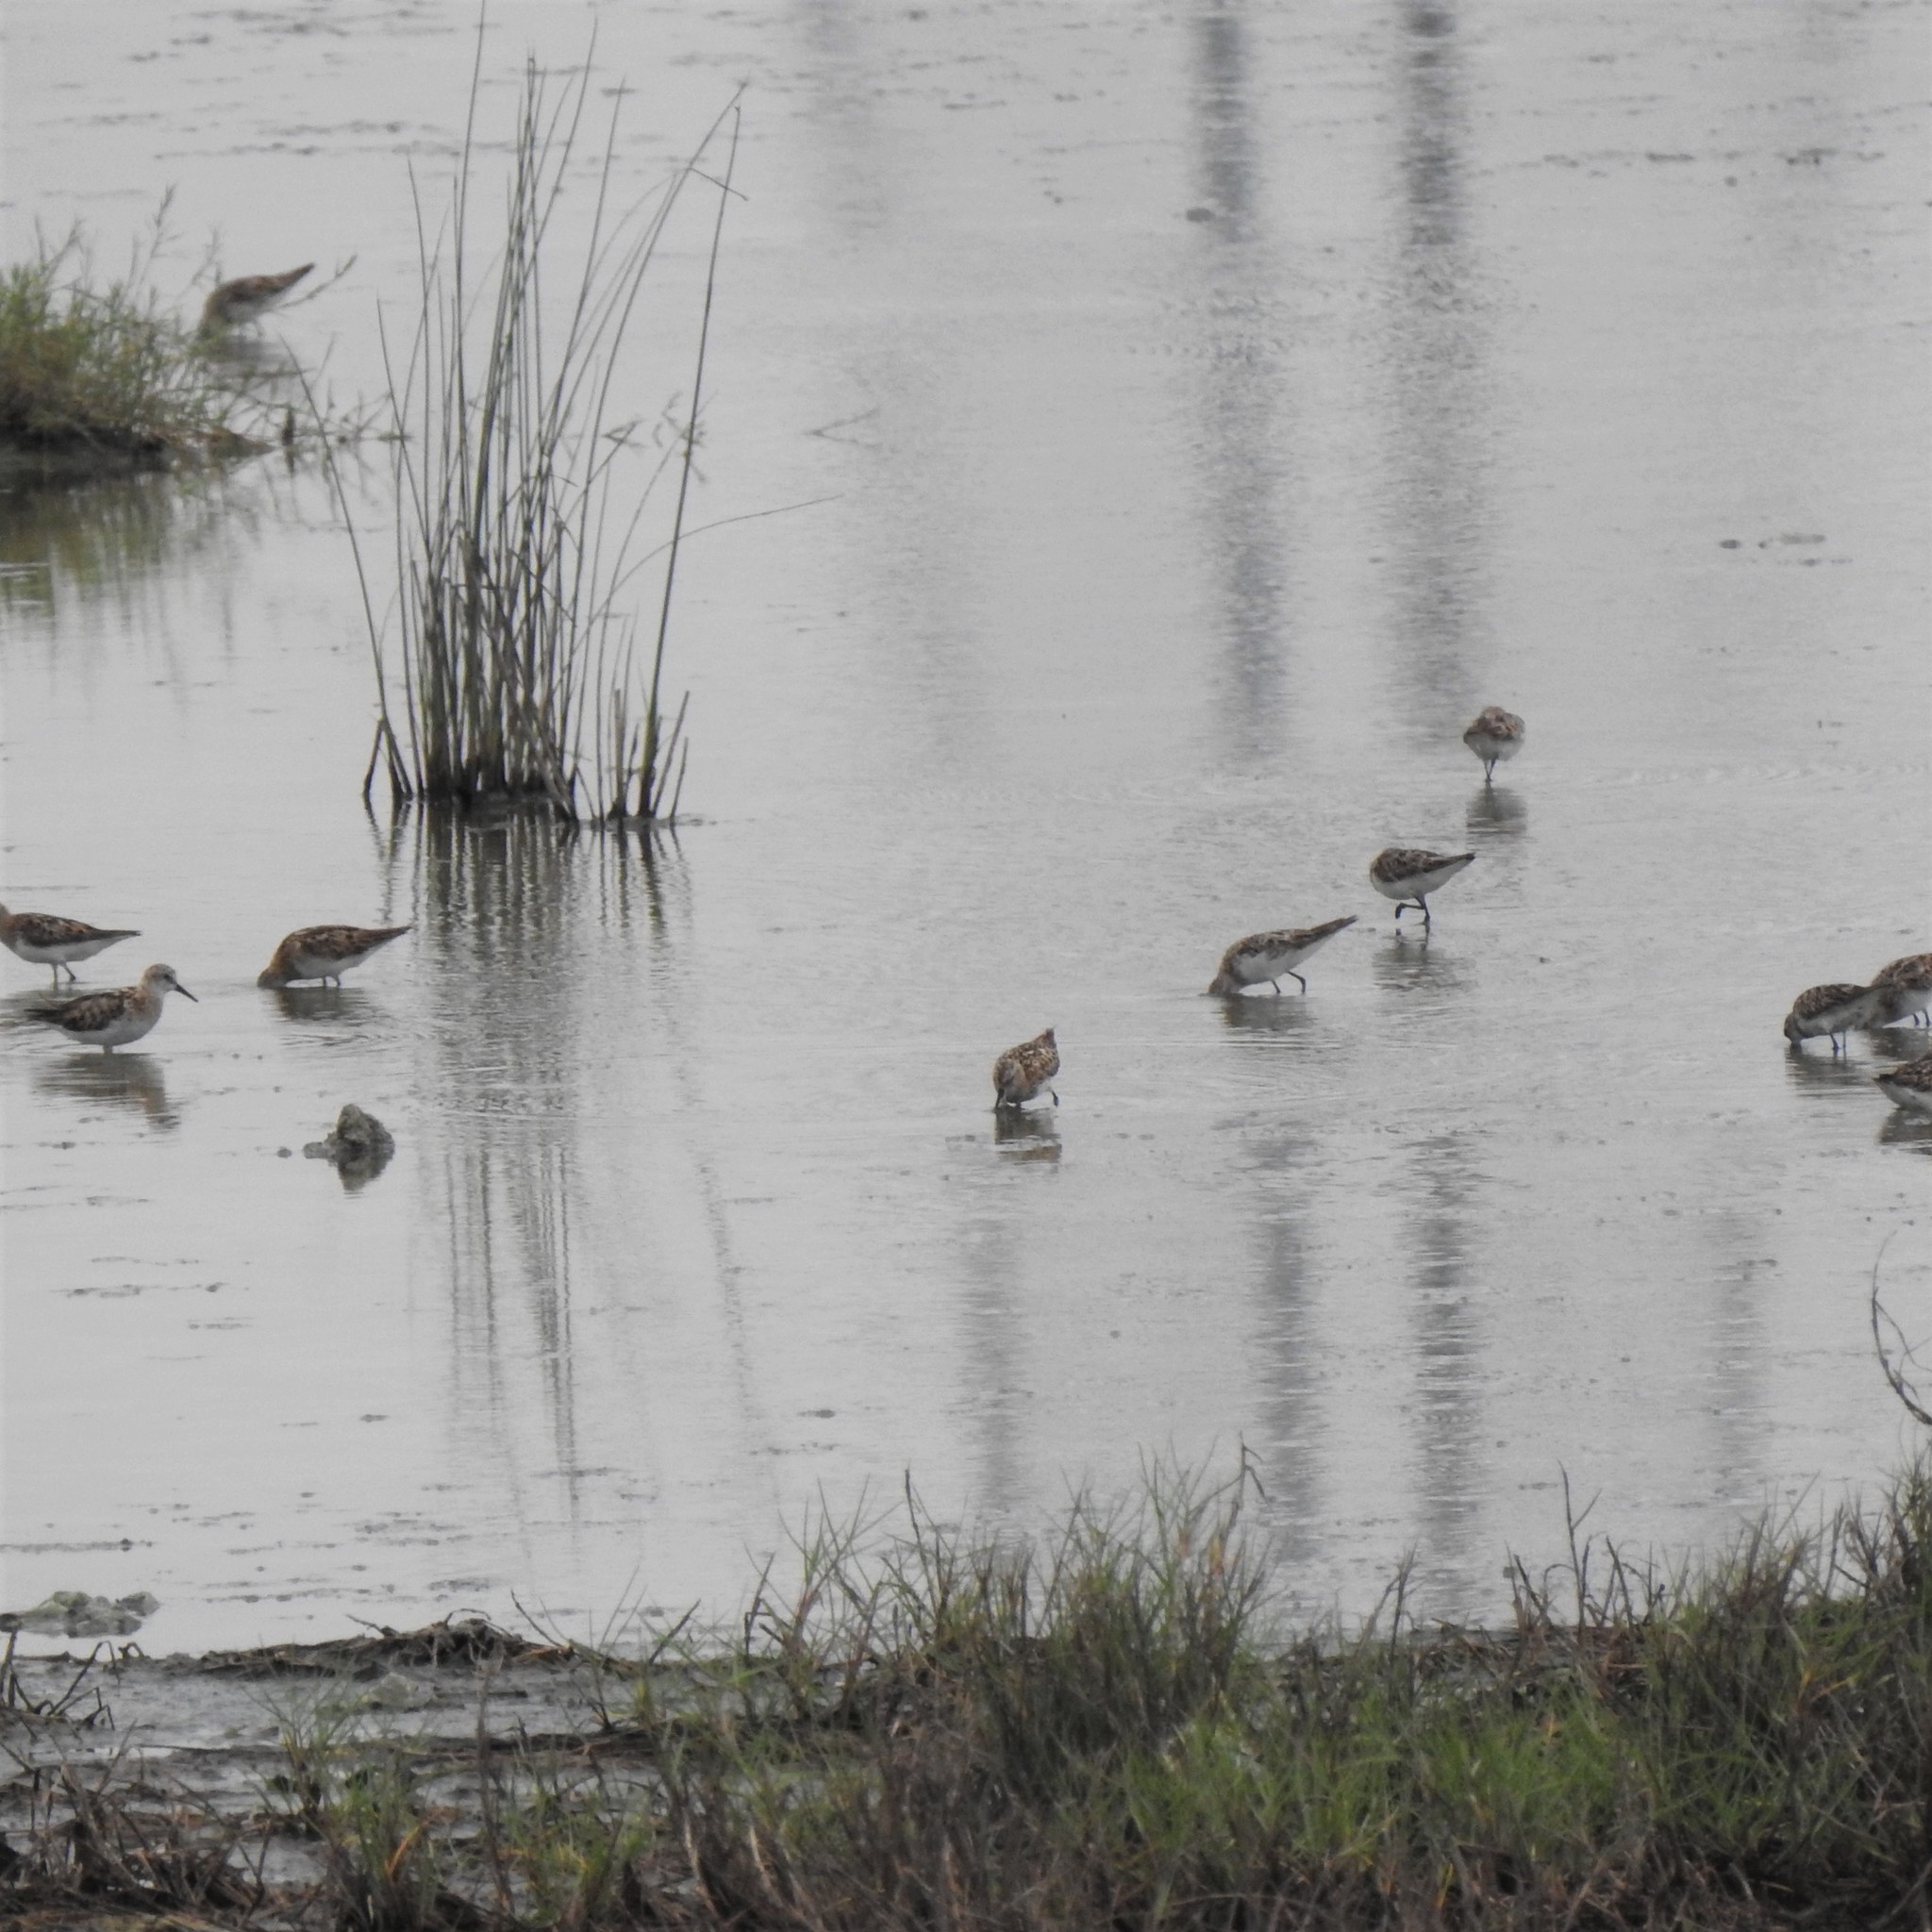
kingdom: Animalia
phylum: Chordata
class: Aves
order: Charadriiformes
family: Scolopacidae
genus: Calidris
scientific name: Calidris minuta
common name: Little stint
